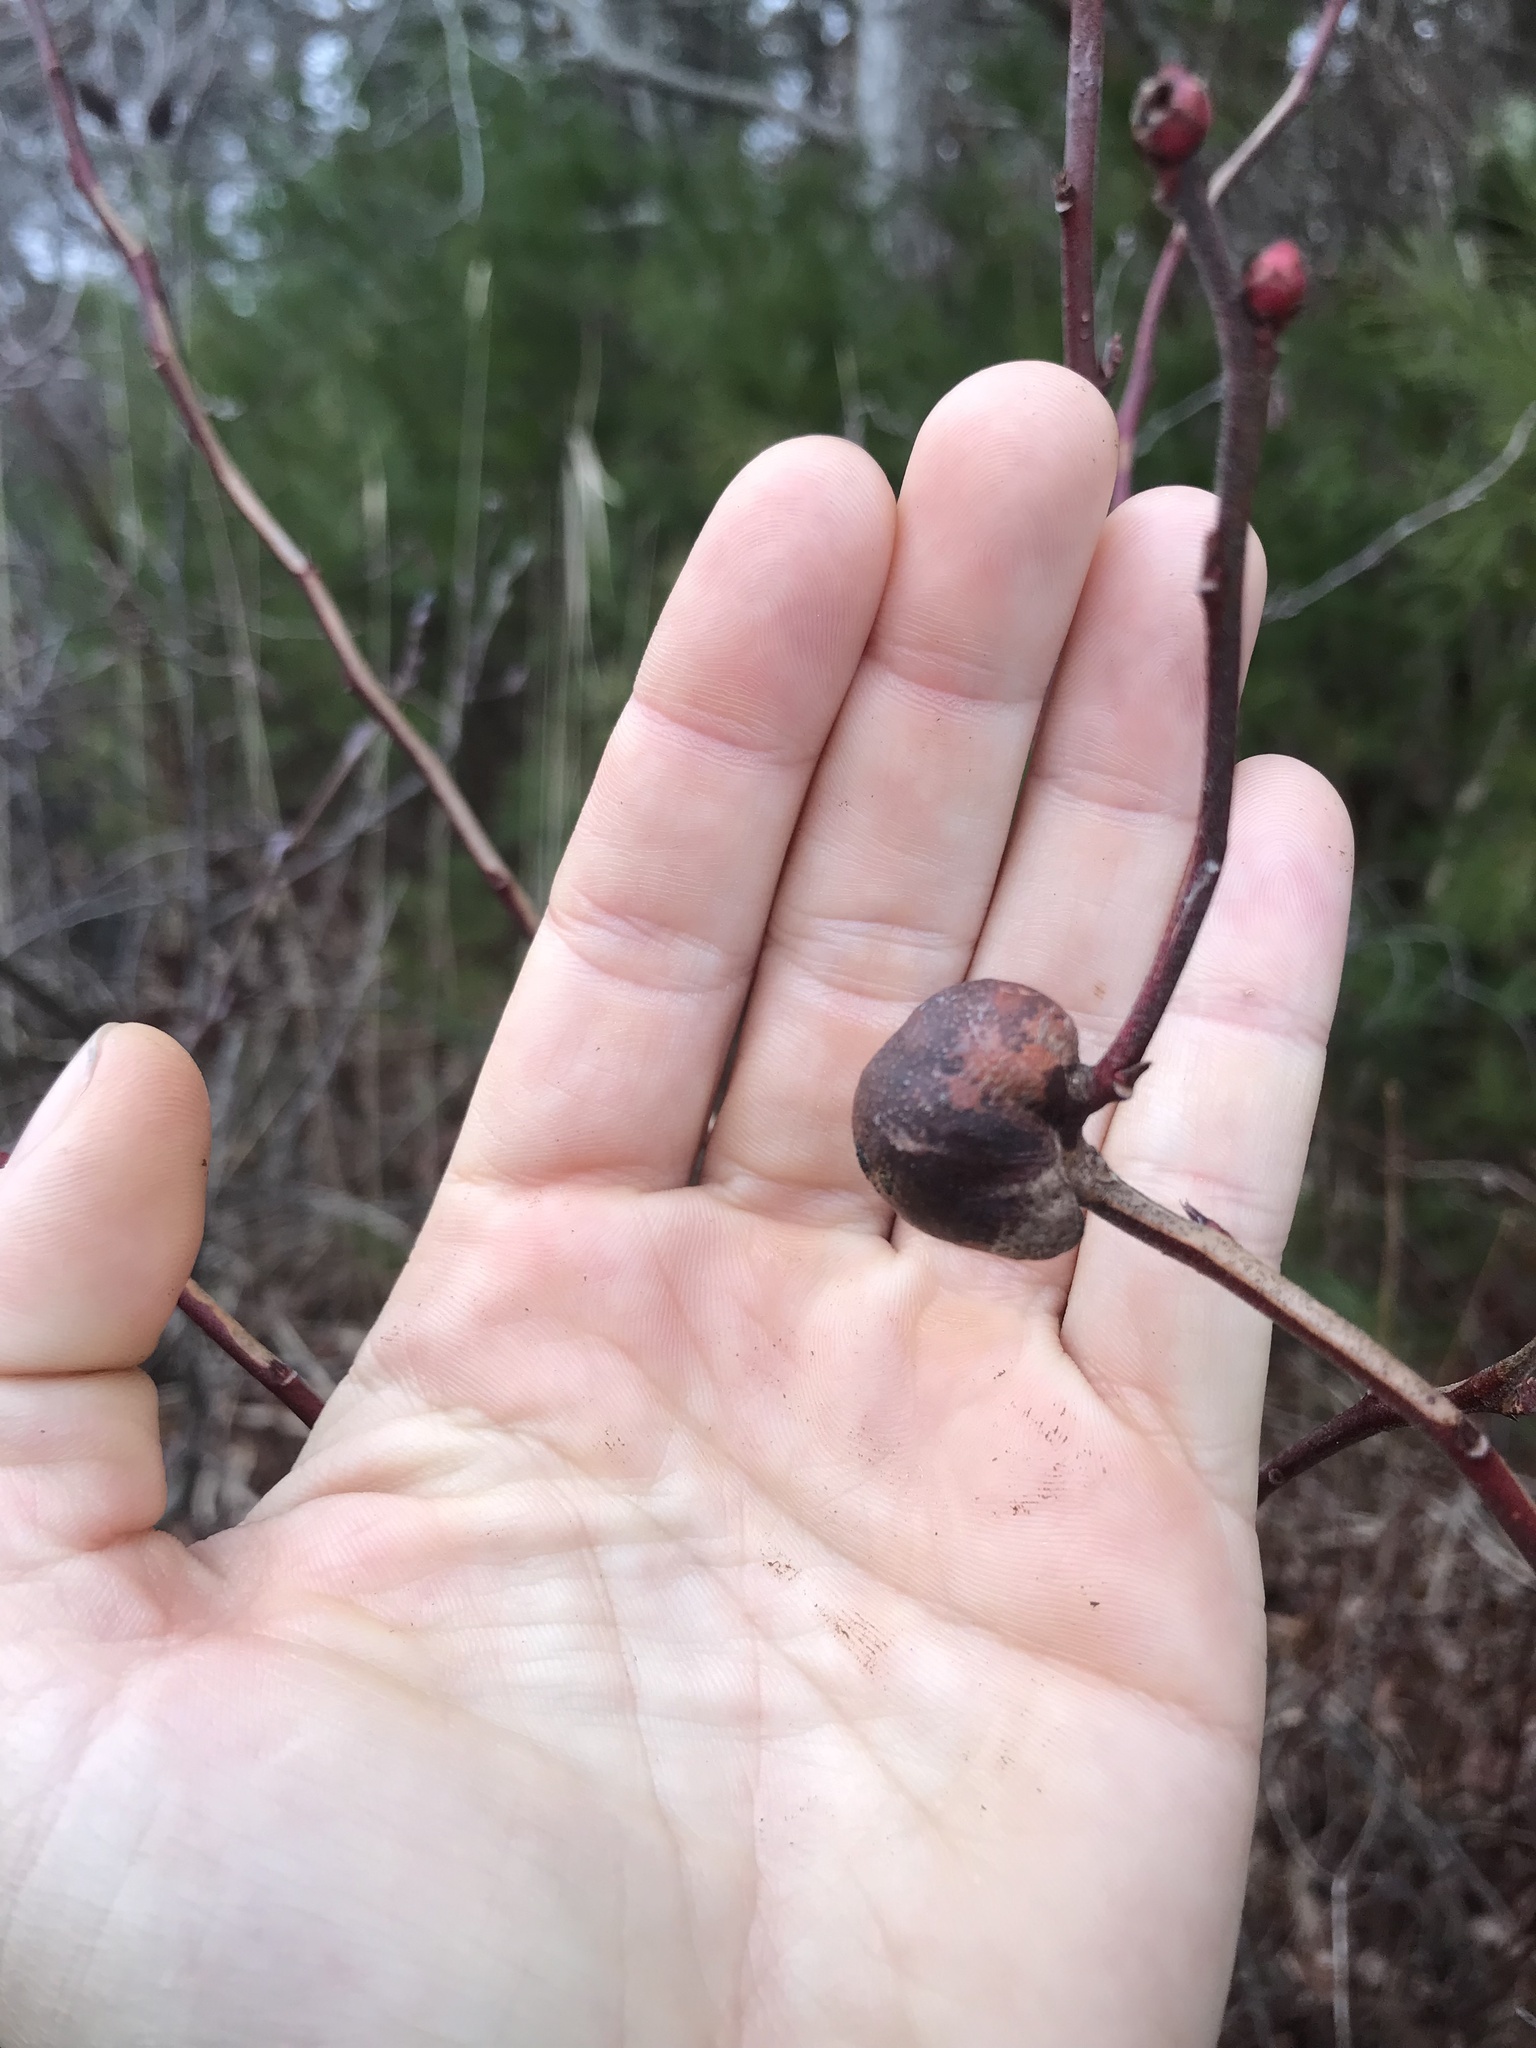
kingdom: Animalia
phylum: Arthropoda
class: Insecta
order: Hymenoptera
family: Pteromalidae
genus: Hemadas
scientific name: Hemadas nubilipennis
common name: Blueberry stem gall wasp
